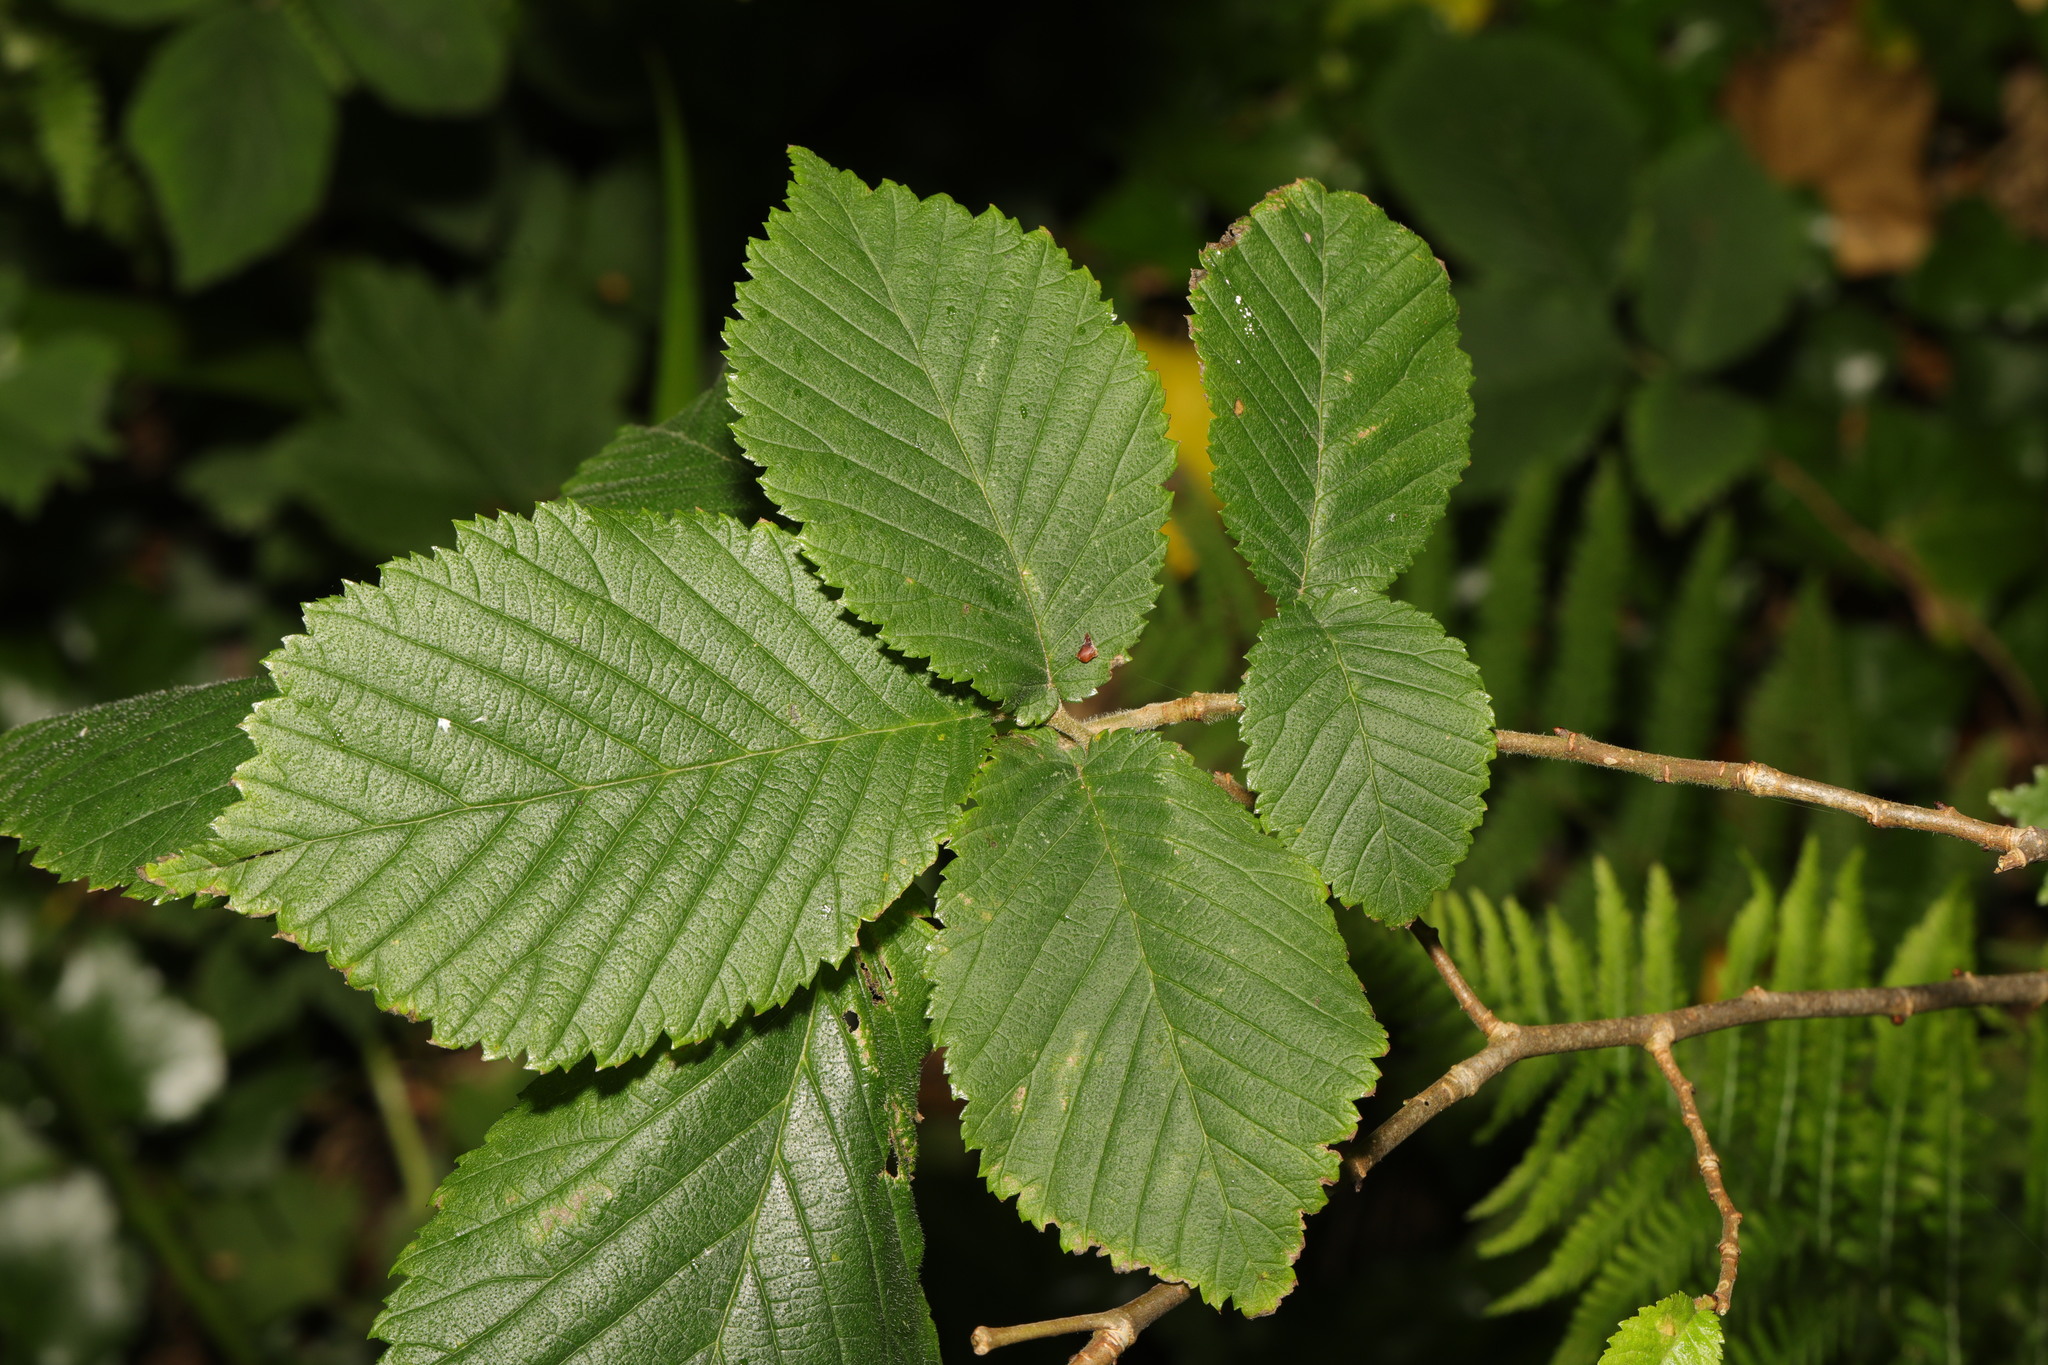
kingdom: Plantae
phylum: Tracheophyta
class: Magnoliopsida
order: Rosales
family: Ulmaceae
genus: Ulmus
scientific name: Ulmus glabra
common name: Wych elm
